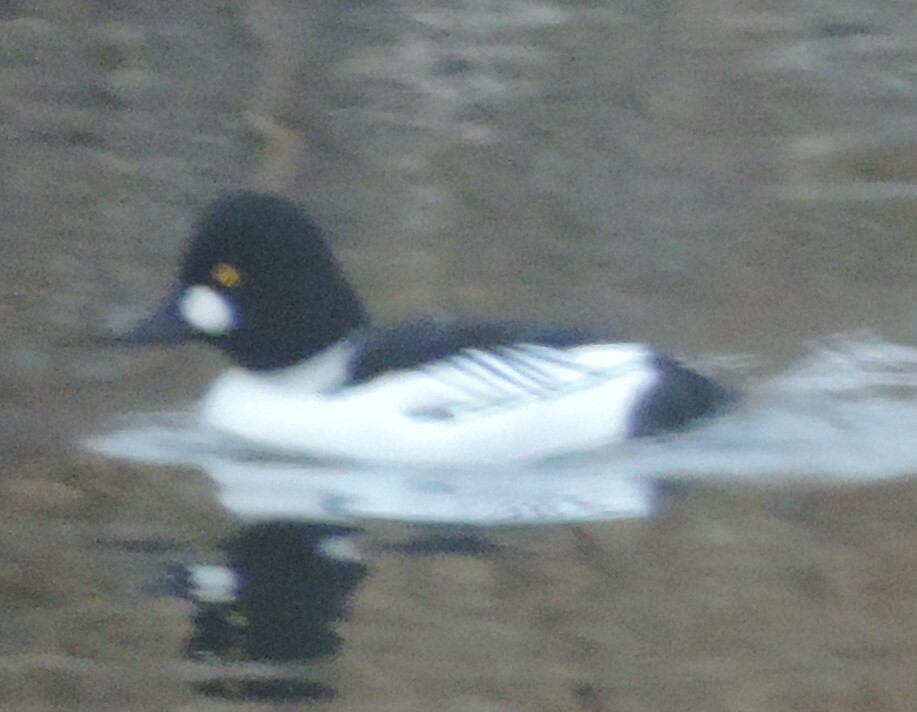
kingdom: Animalia
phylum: Chordata
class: Aves
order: Anseriformes
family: Anatidae
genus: Bucephala
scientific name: Bucephala clangula
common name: Common goldeneye
